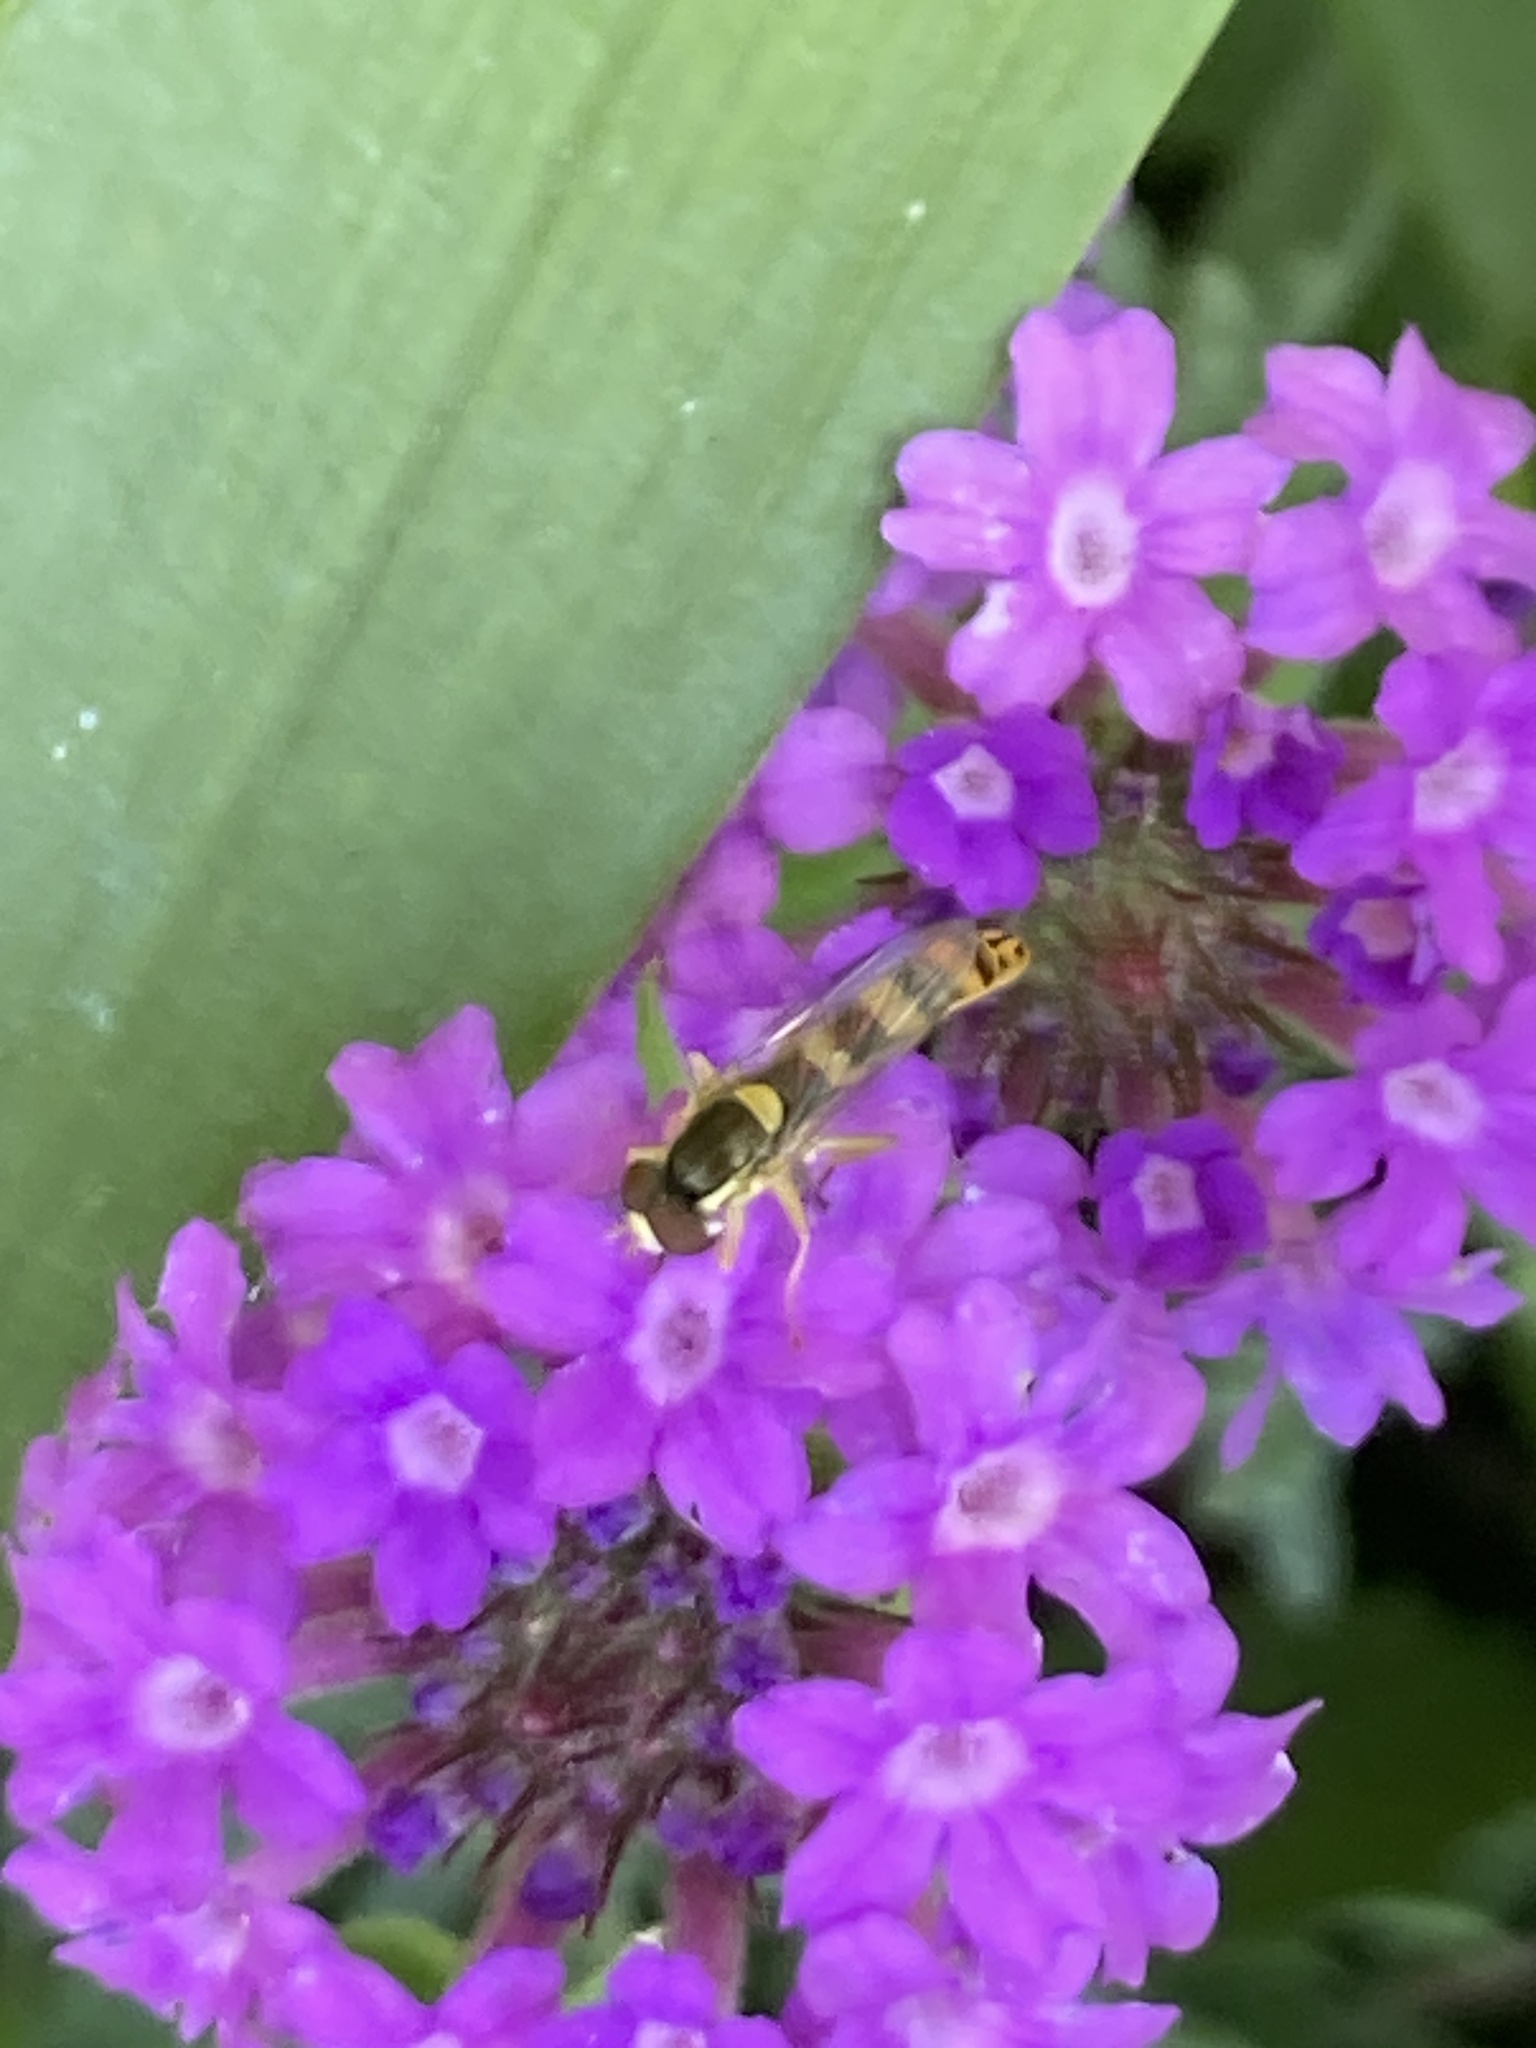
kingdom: Animalia
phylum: Arthropoda
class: Insecta
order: Diptera
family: Syrphidae
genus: Sphaerophoria
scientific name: Sphaerophoria scripta
